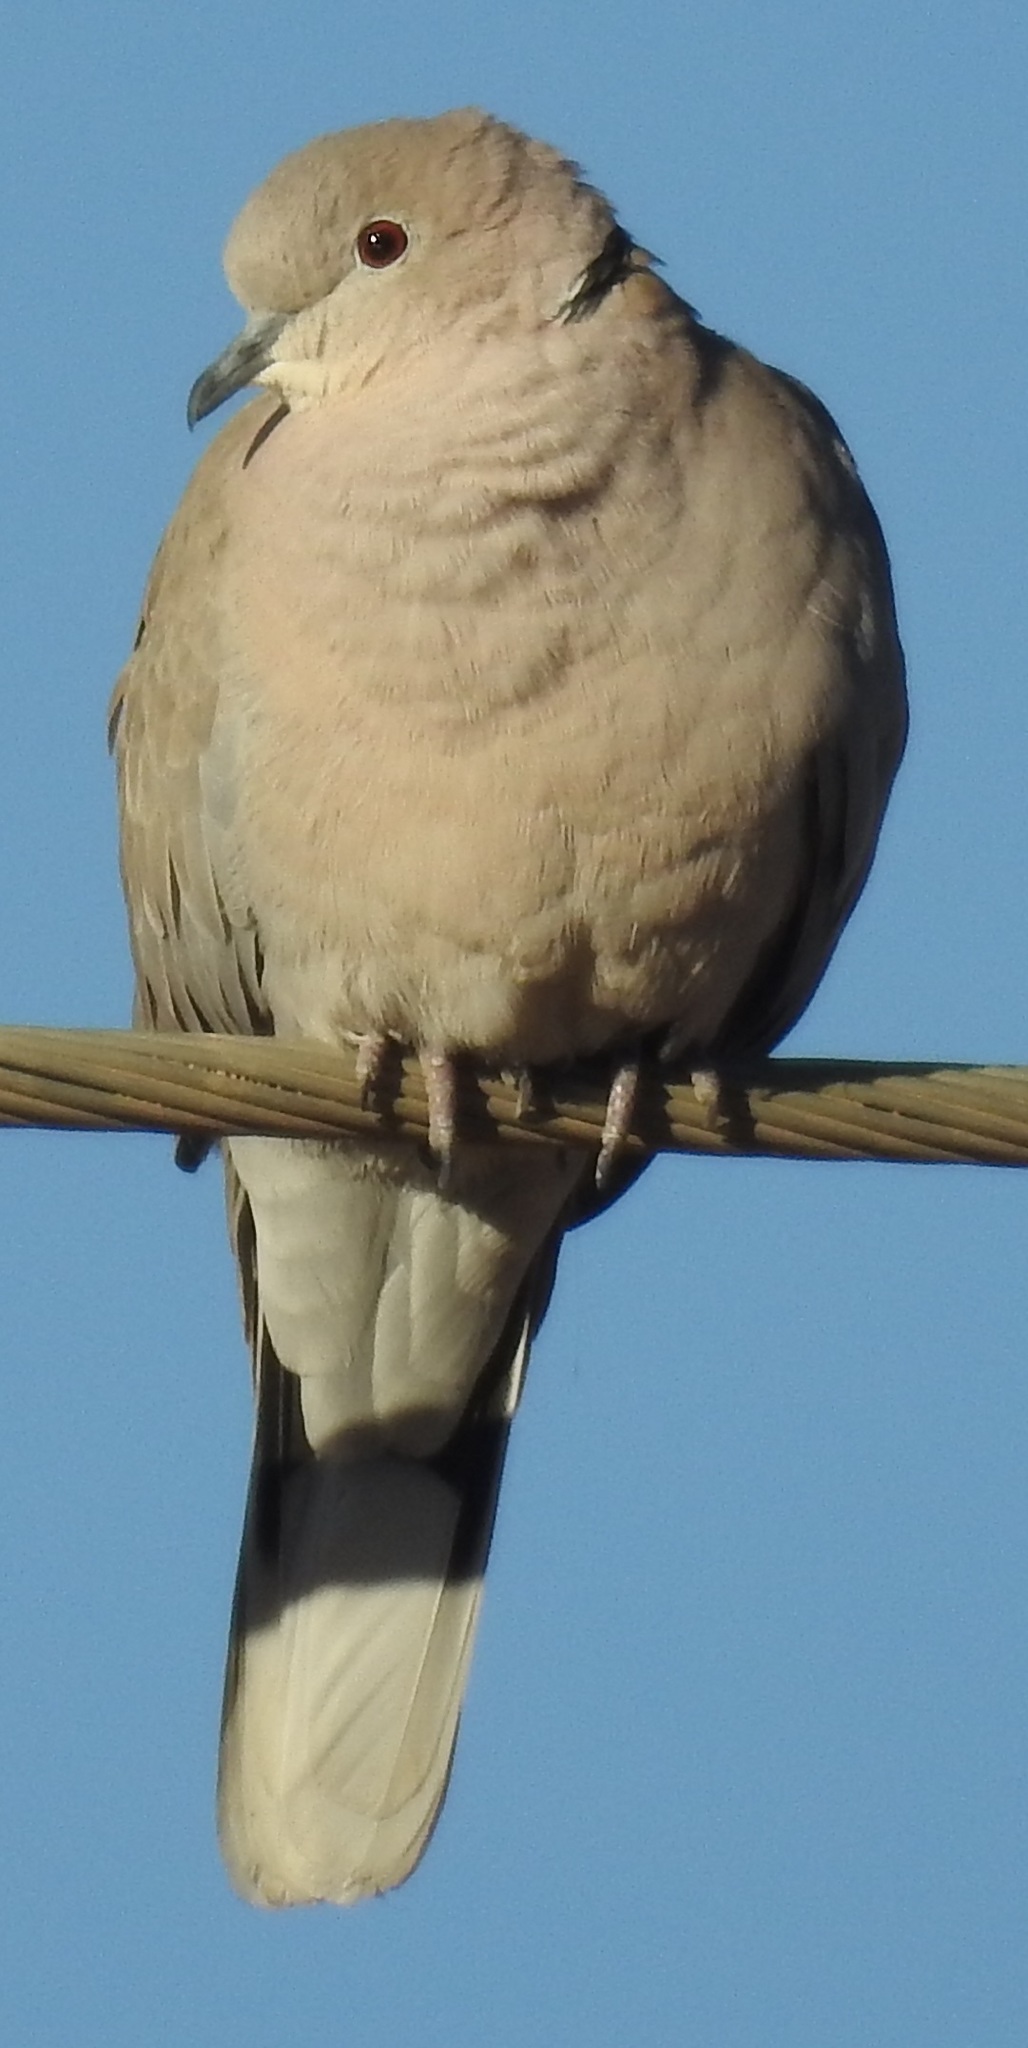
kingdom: Animalia
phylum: Chordata
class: Aves
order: Columbiformes
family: Columbidae
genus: Streptopelia
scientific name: Streptopelia decaocto
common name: Eurasian collared dove
